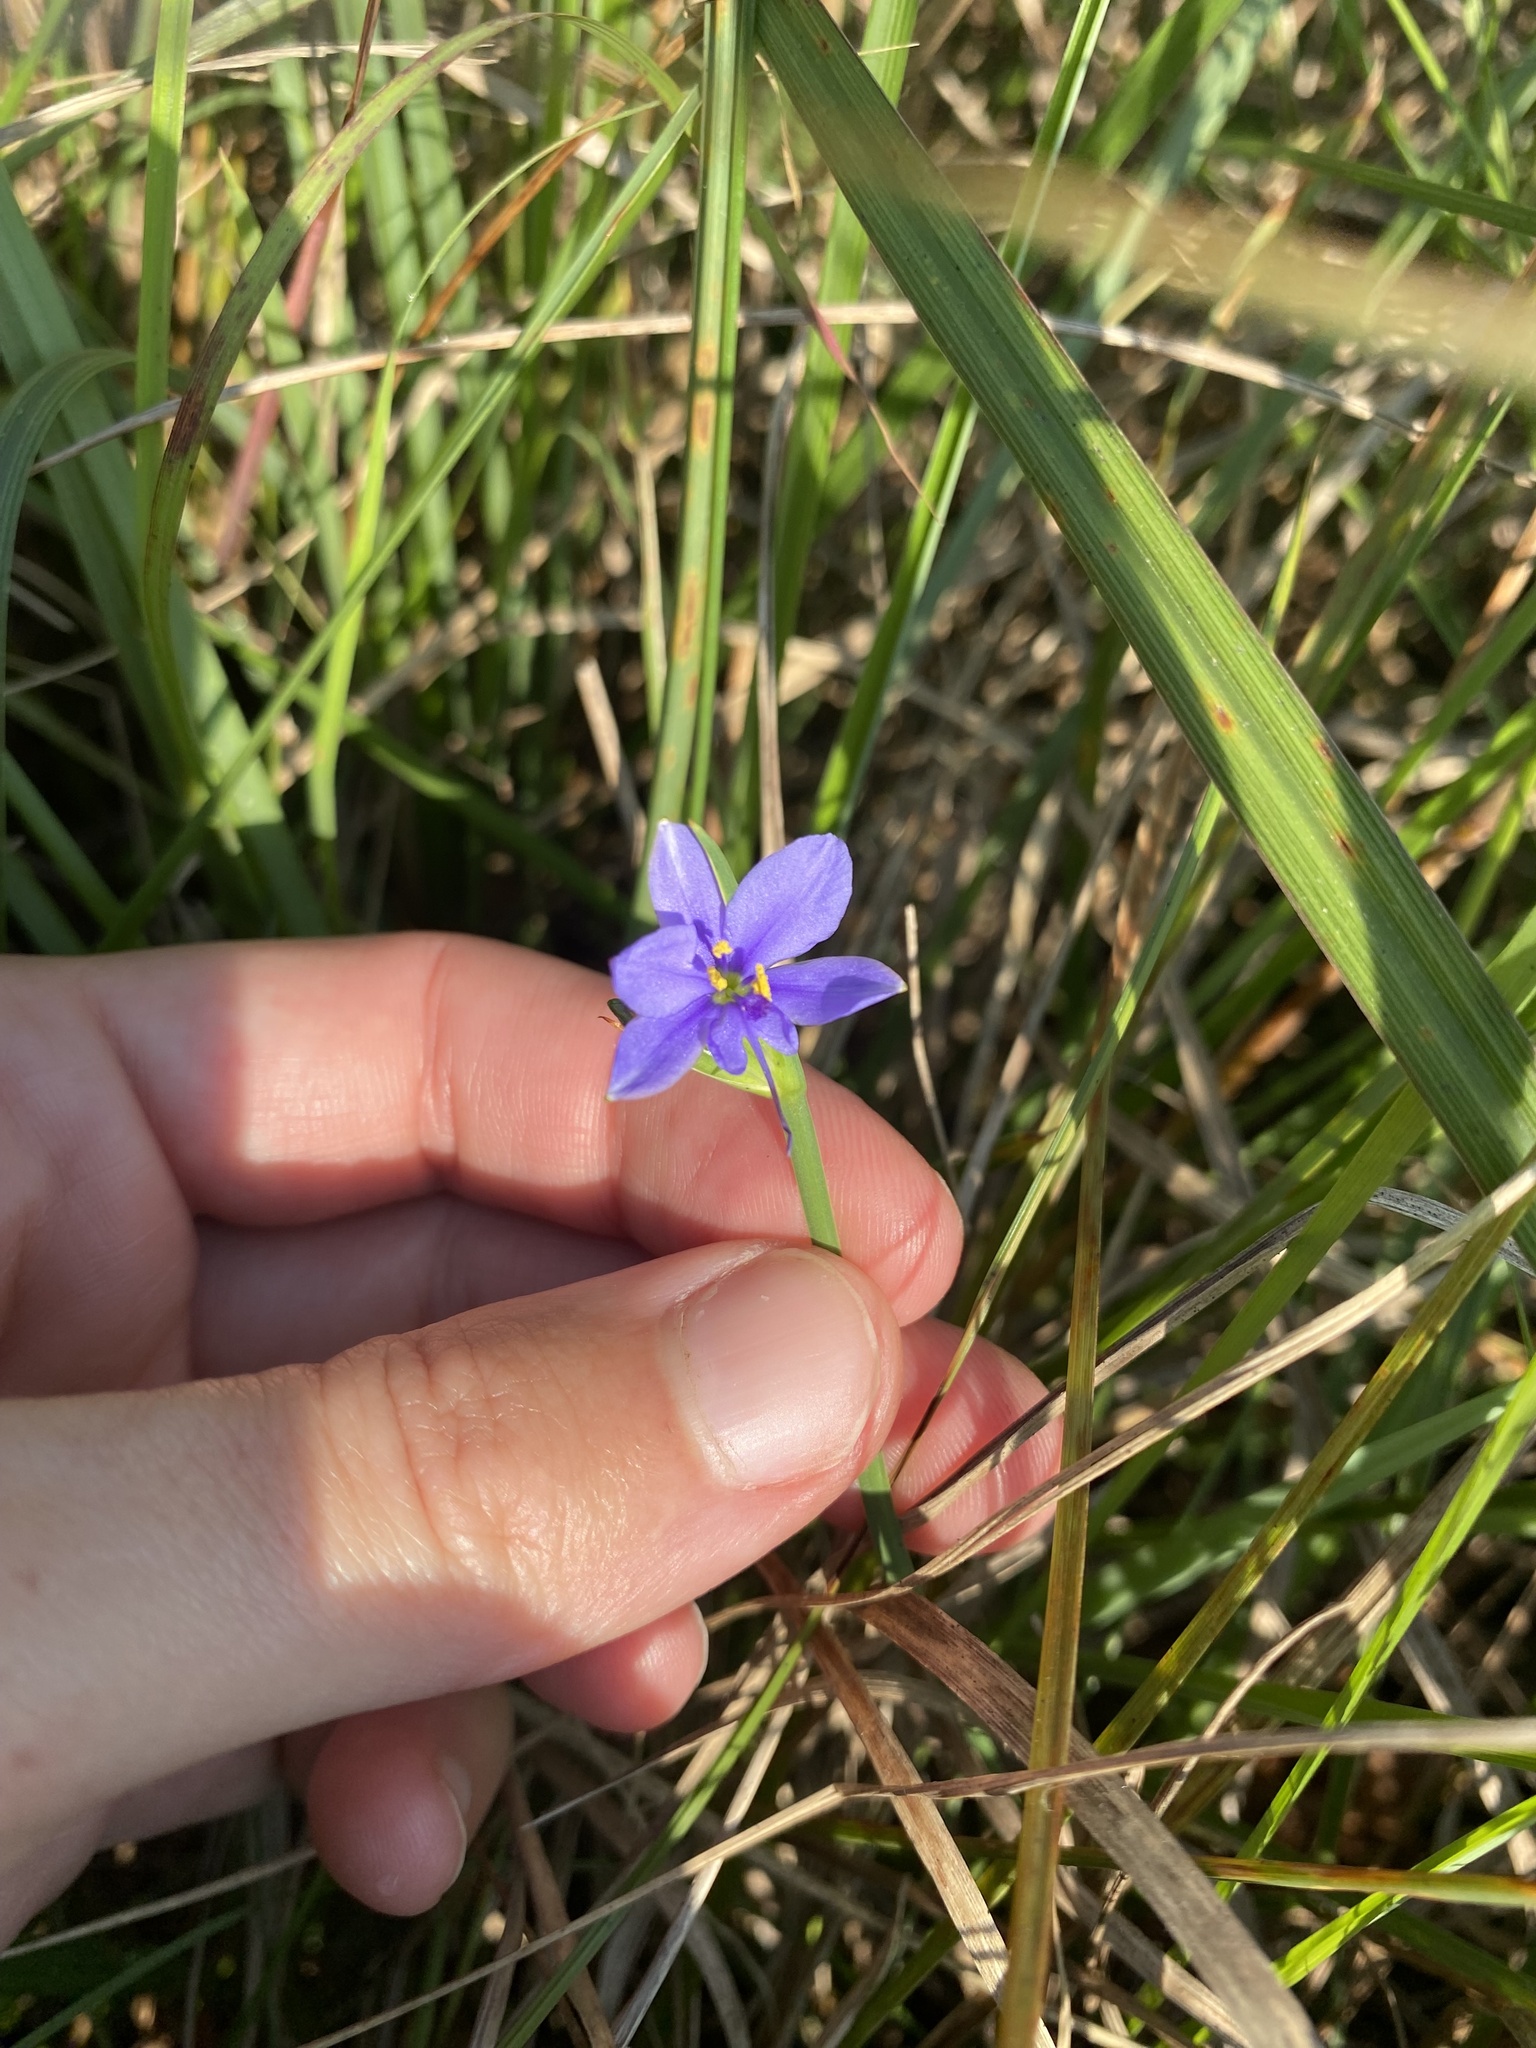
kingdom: Plantae
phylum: Tracheophyta
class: Liliopsida
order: Asparagales
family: Iridaceae
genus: Aristea
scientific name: Aristea abyssinica
